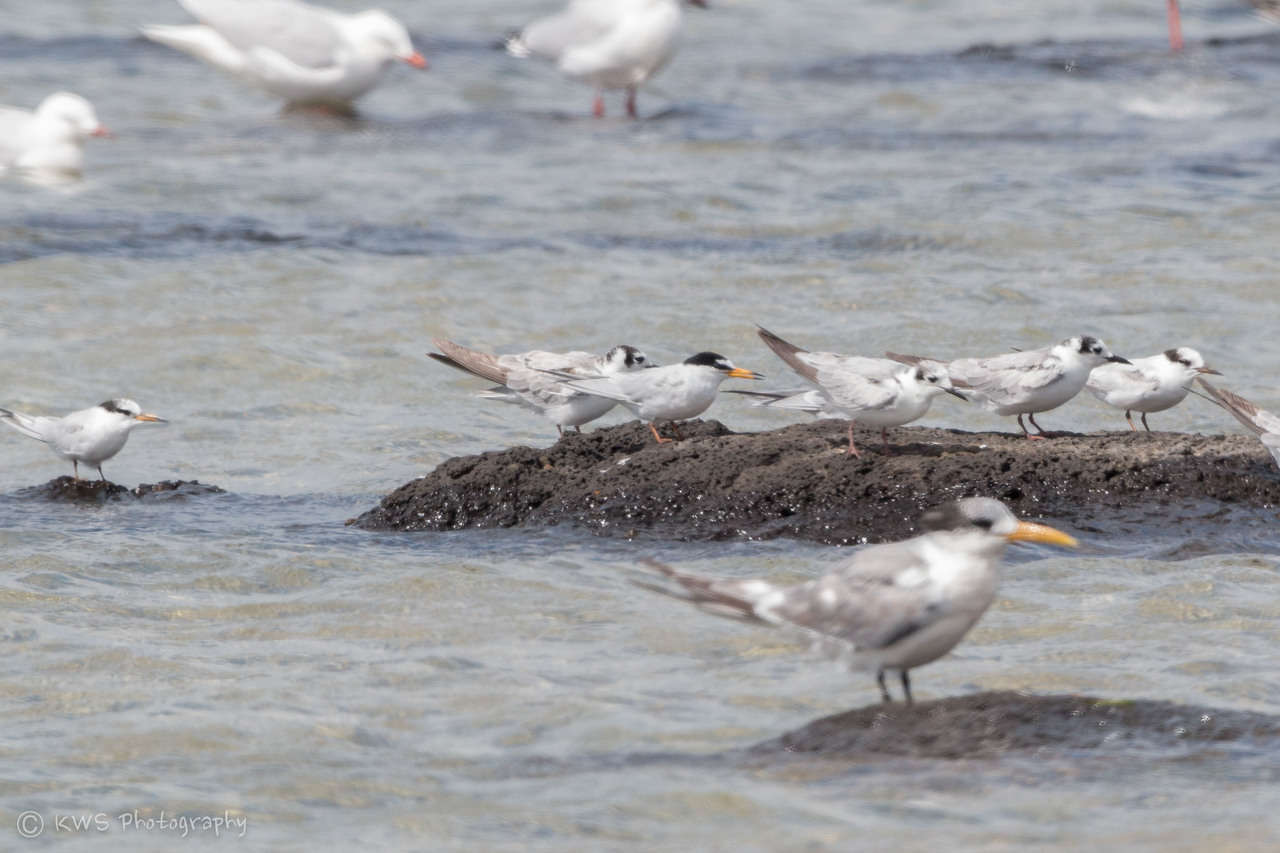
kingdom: Animalia
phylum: Chordata
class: Aves
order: Charadriiformes
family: Laridae
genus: Sternula
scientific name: Sternula albifrons
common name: Little tern
